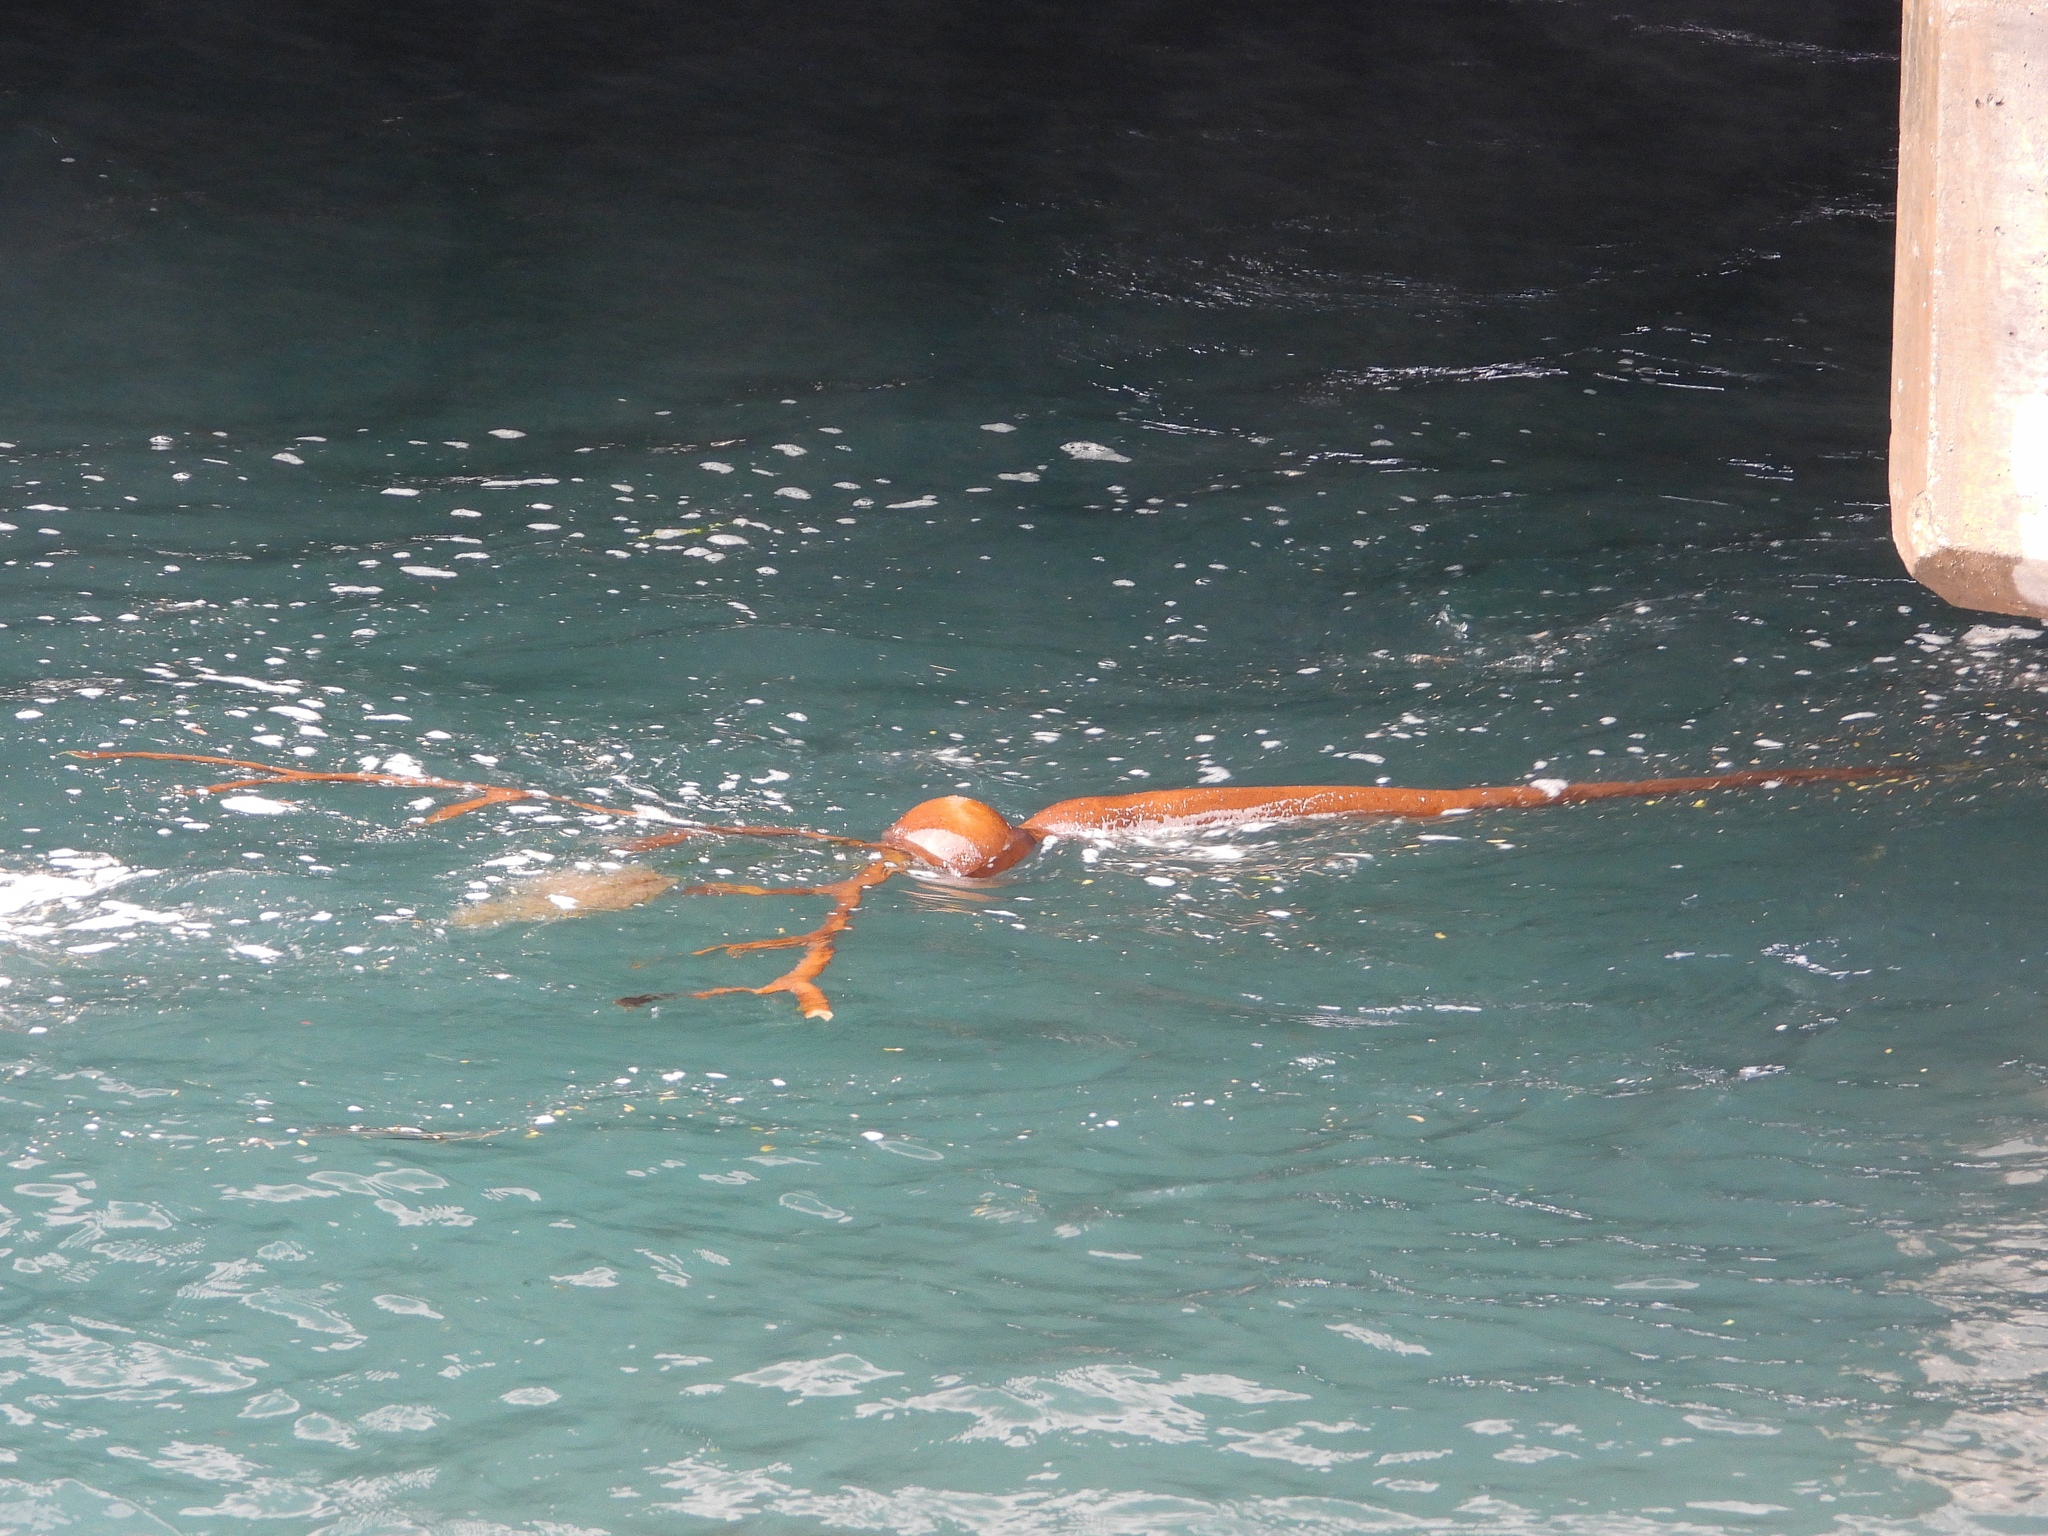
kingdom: Chromista
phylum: Ochrophyta
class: Phaeophyceae
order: Laminariales
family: Laminariaceae
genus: Pelagophycus
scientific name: Pelagophycus porra
